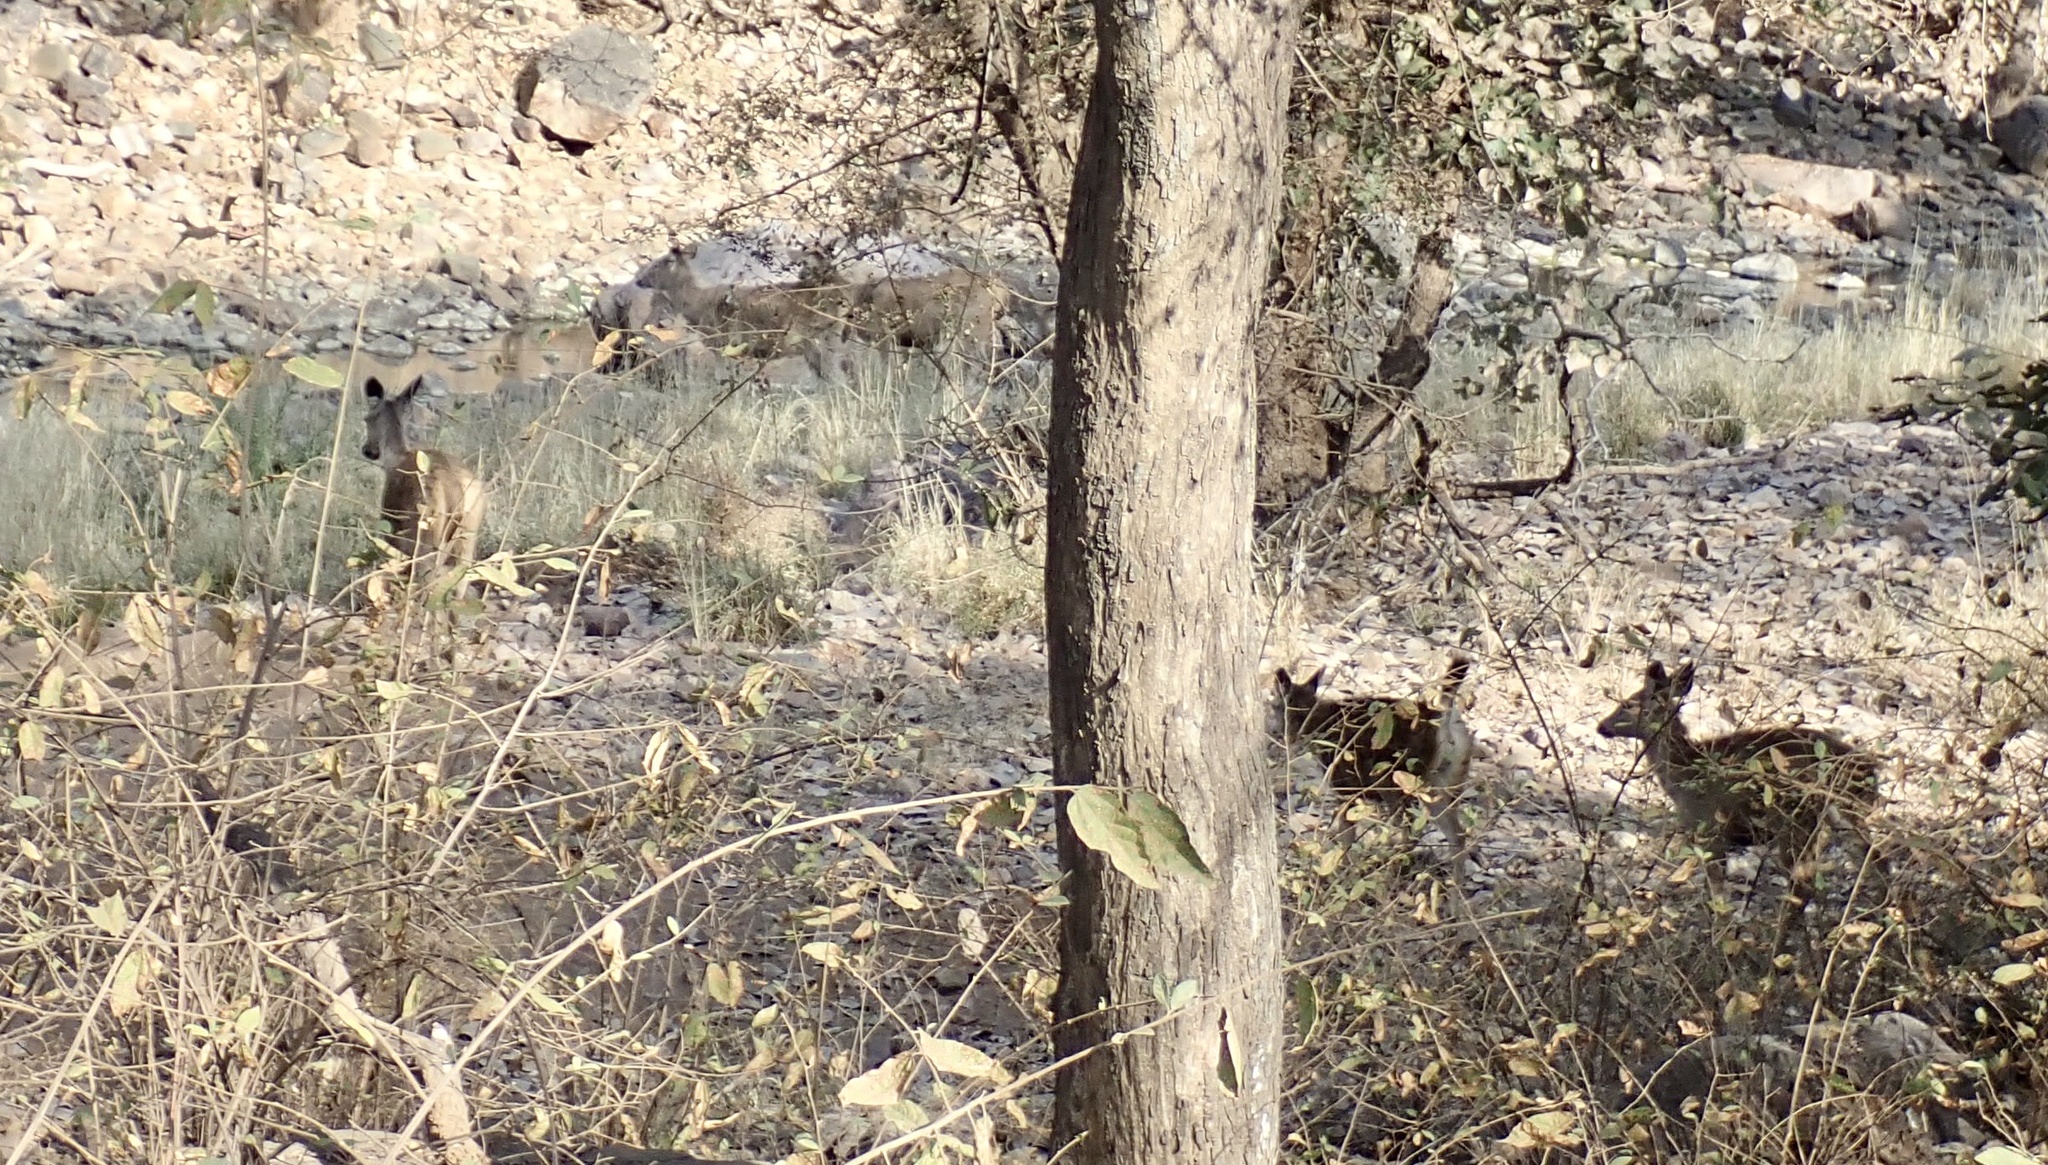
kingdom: Animalia
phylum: Chordata
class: Mammalia
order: Artiodactyla
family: Cervidae
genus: Axis
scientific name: Axis axis
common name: Chital
